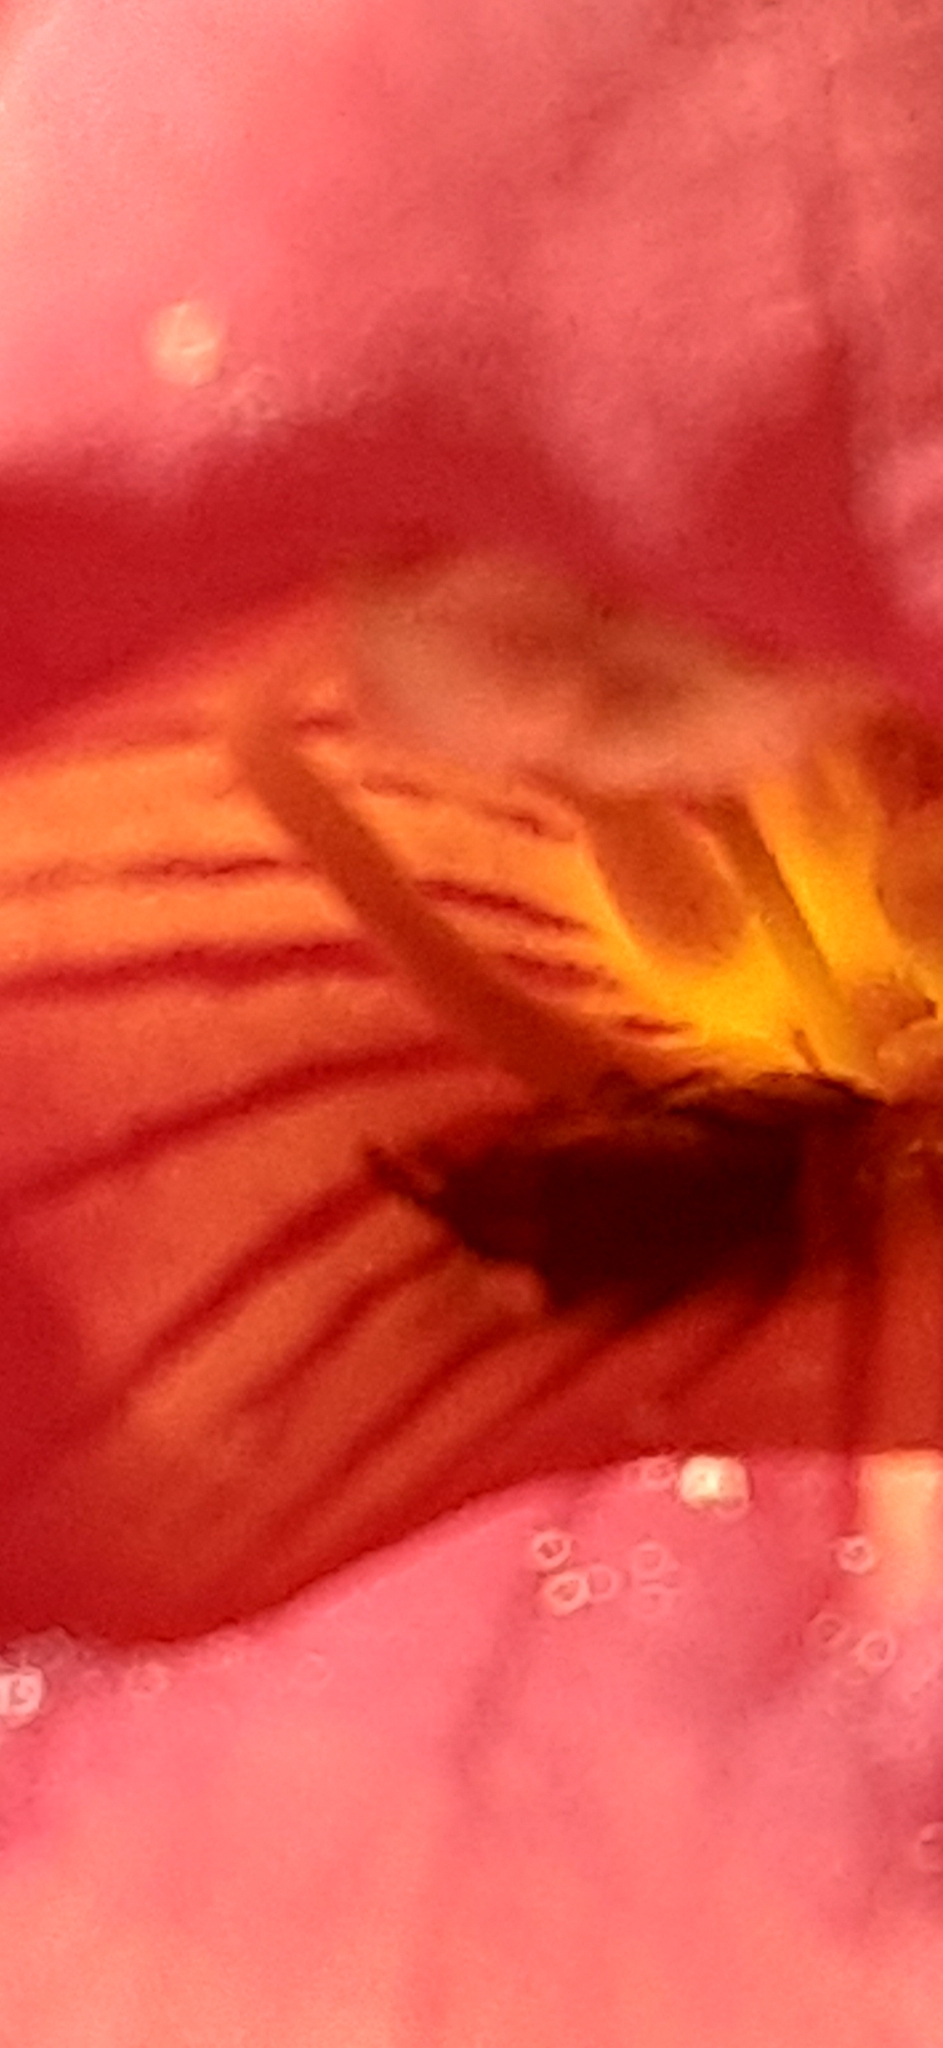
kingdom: Animalia
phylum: Arthropoda
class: Insecta
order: Dermaptera
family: Forficulidae
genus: Forficula
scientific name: Forficula
